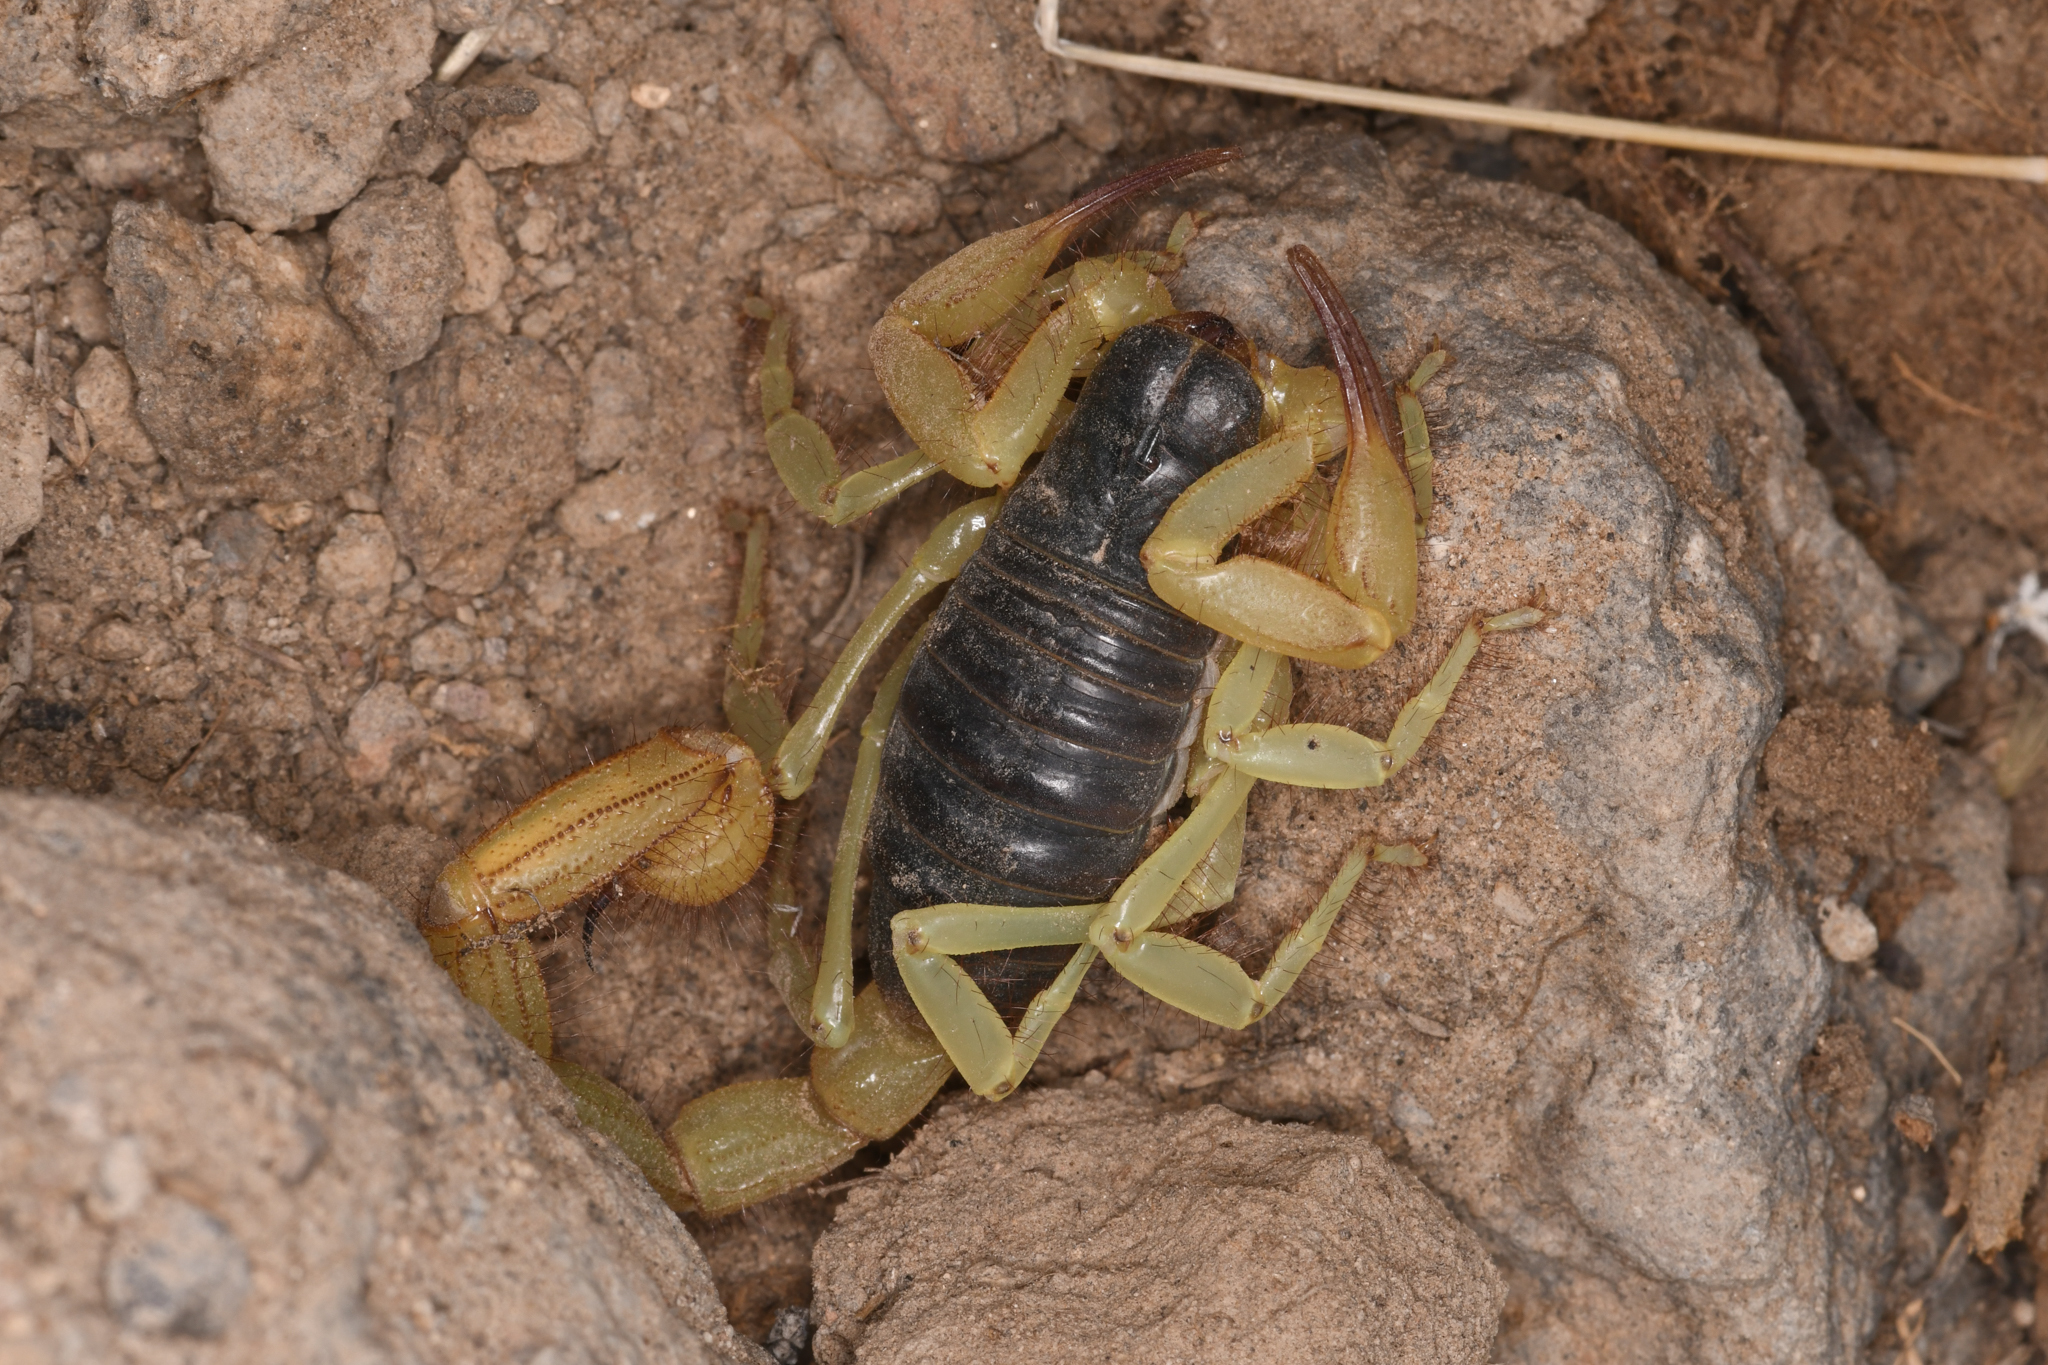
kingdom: Animalia
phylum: Arthropoda
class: Arachnida
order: Scorpiones
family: Hadruridae
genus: Hadrurus
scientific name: Hadrurus spadix
